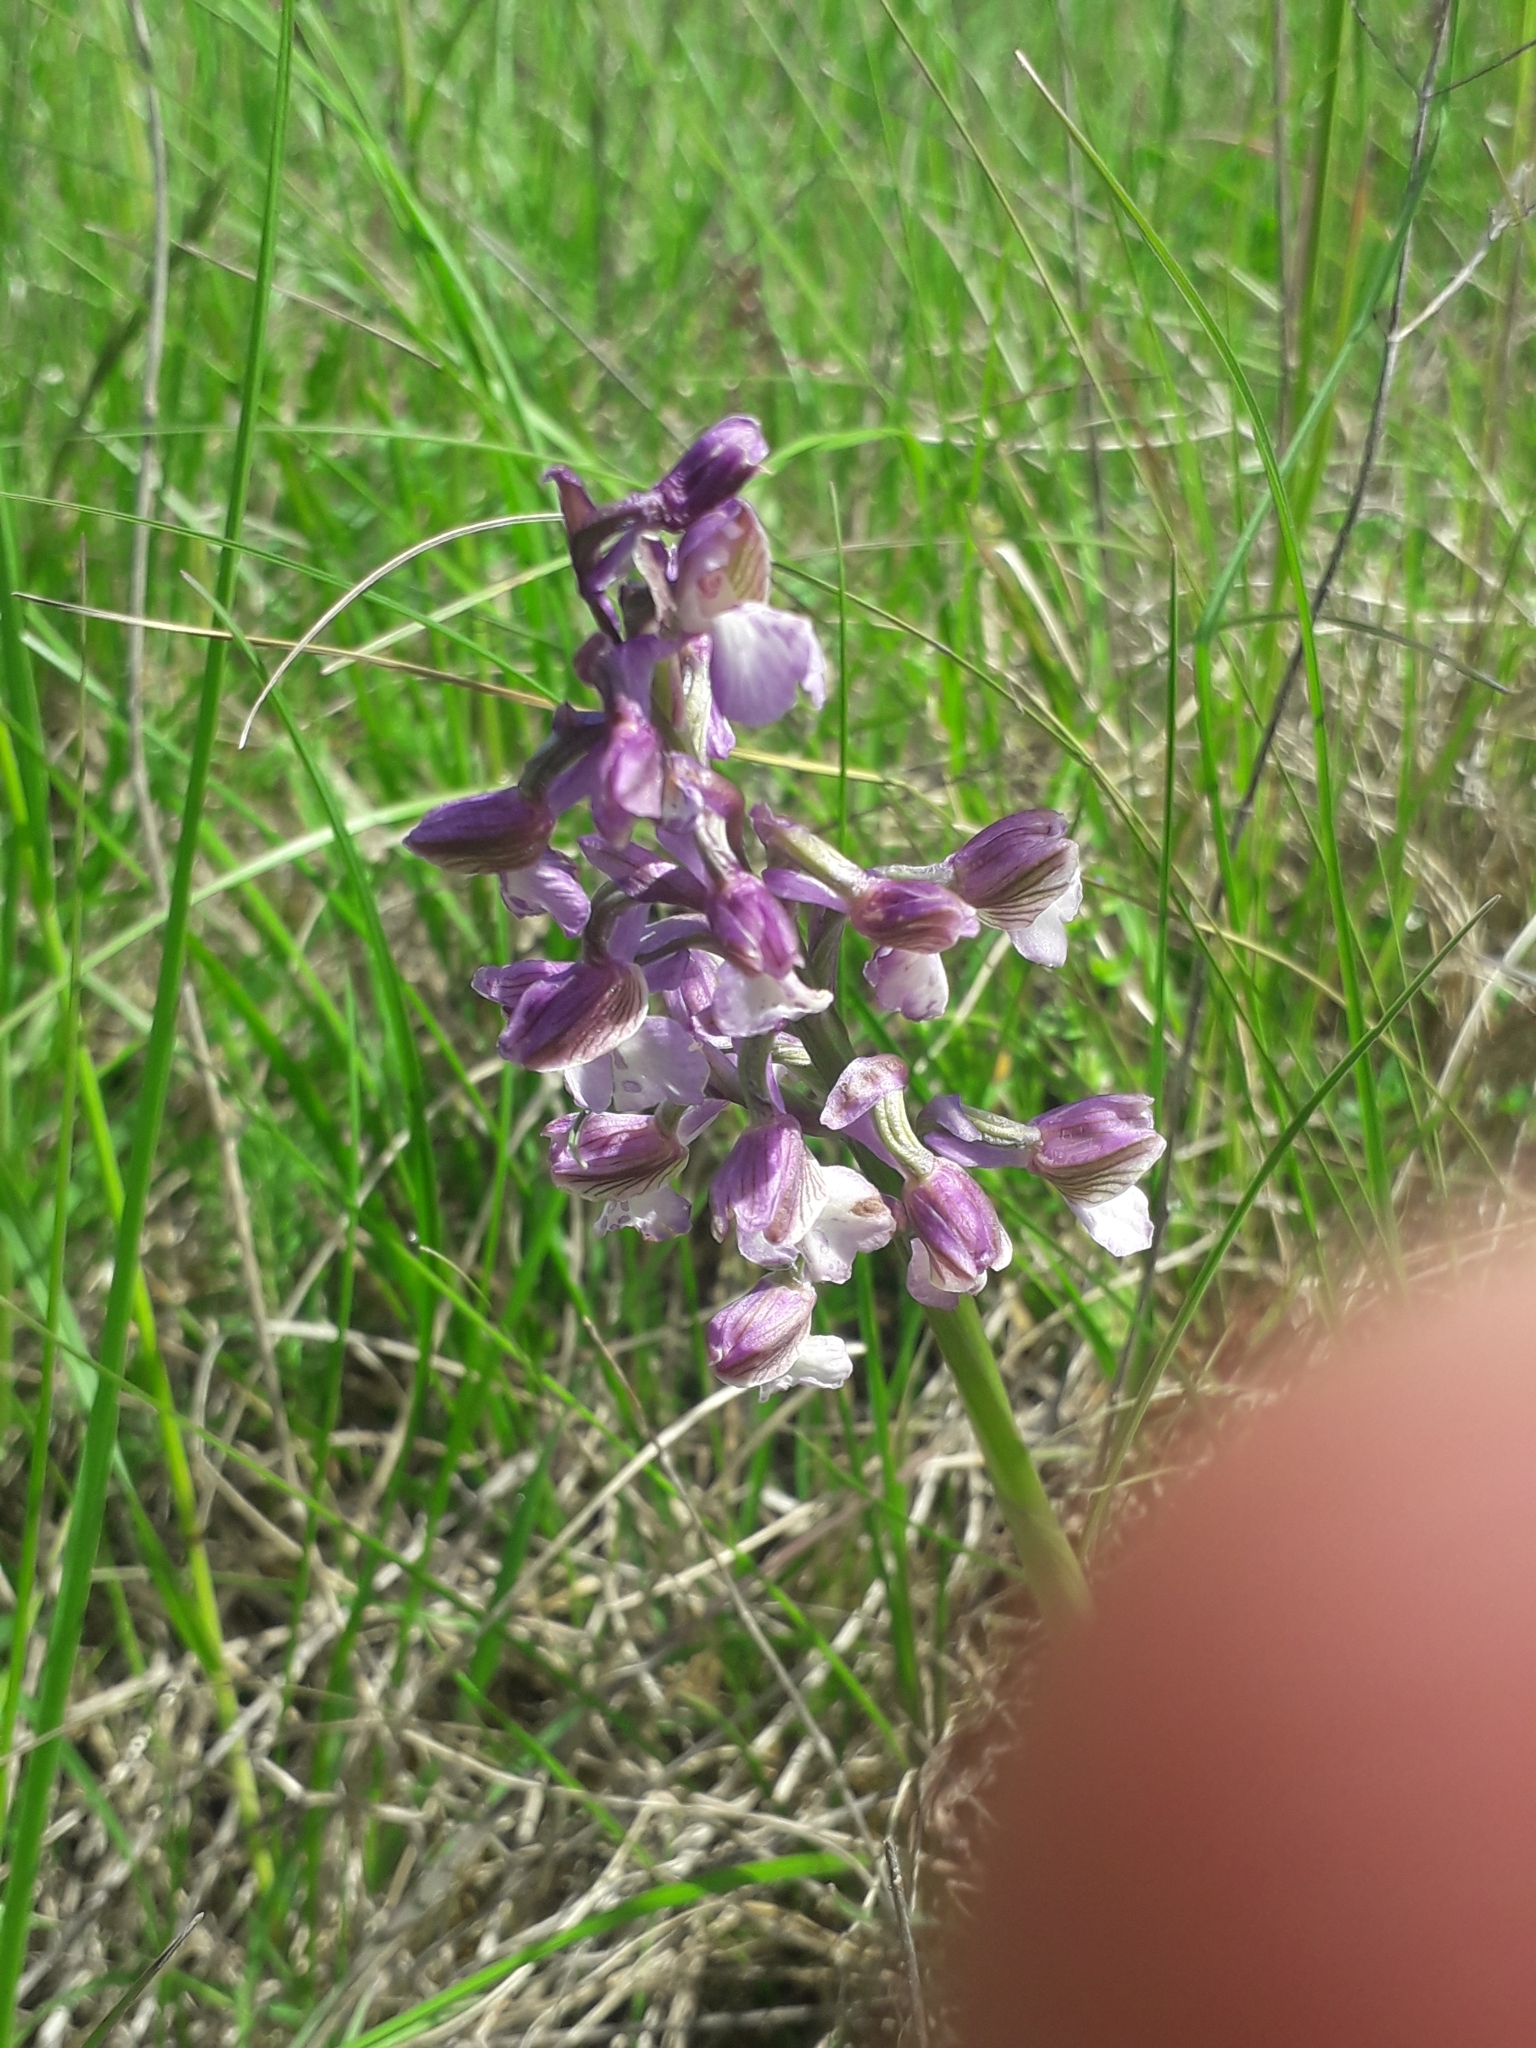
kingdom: Plantae
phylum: Tracheophyta
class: Liliopsida
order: Asparagales
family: Orchidaceae
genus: Anacamptis
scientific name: Anacamptis morio
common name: Green-winged orchid
